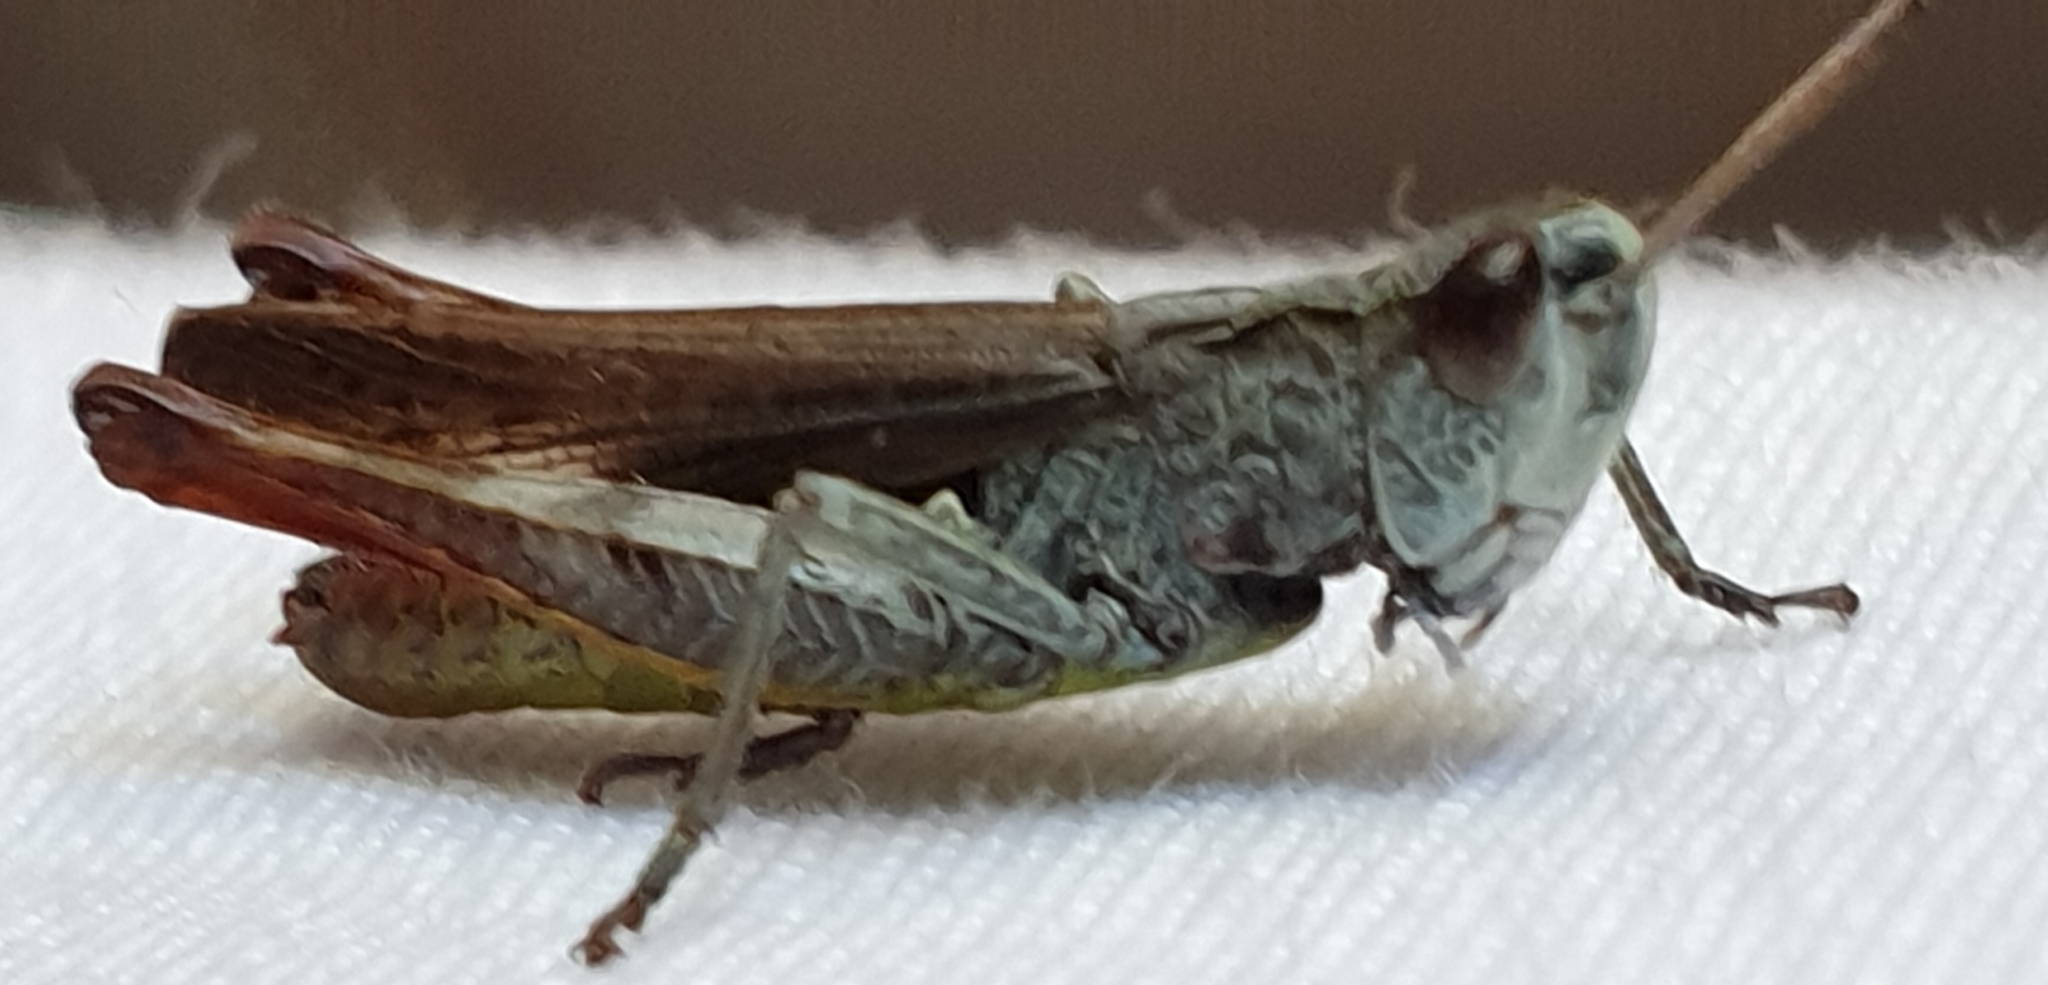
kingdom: Animalia
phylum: Arthropoda
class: Insecta
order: Orthoptera
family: Acrididae
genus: Gomphocerippus
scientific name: Gomphocerippus rufus
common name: Rufous grasshopper
